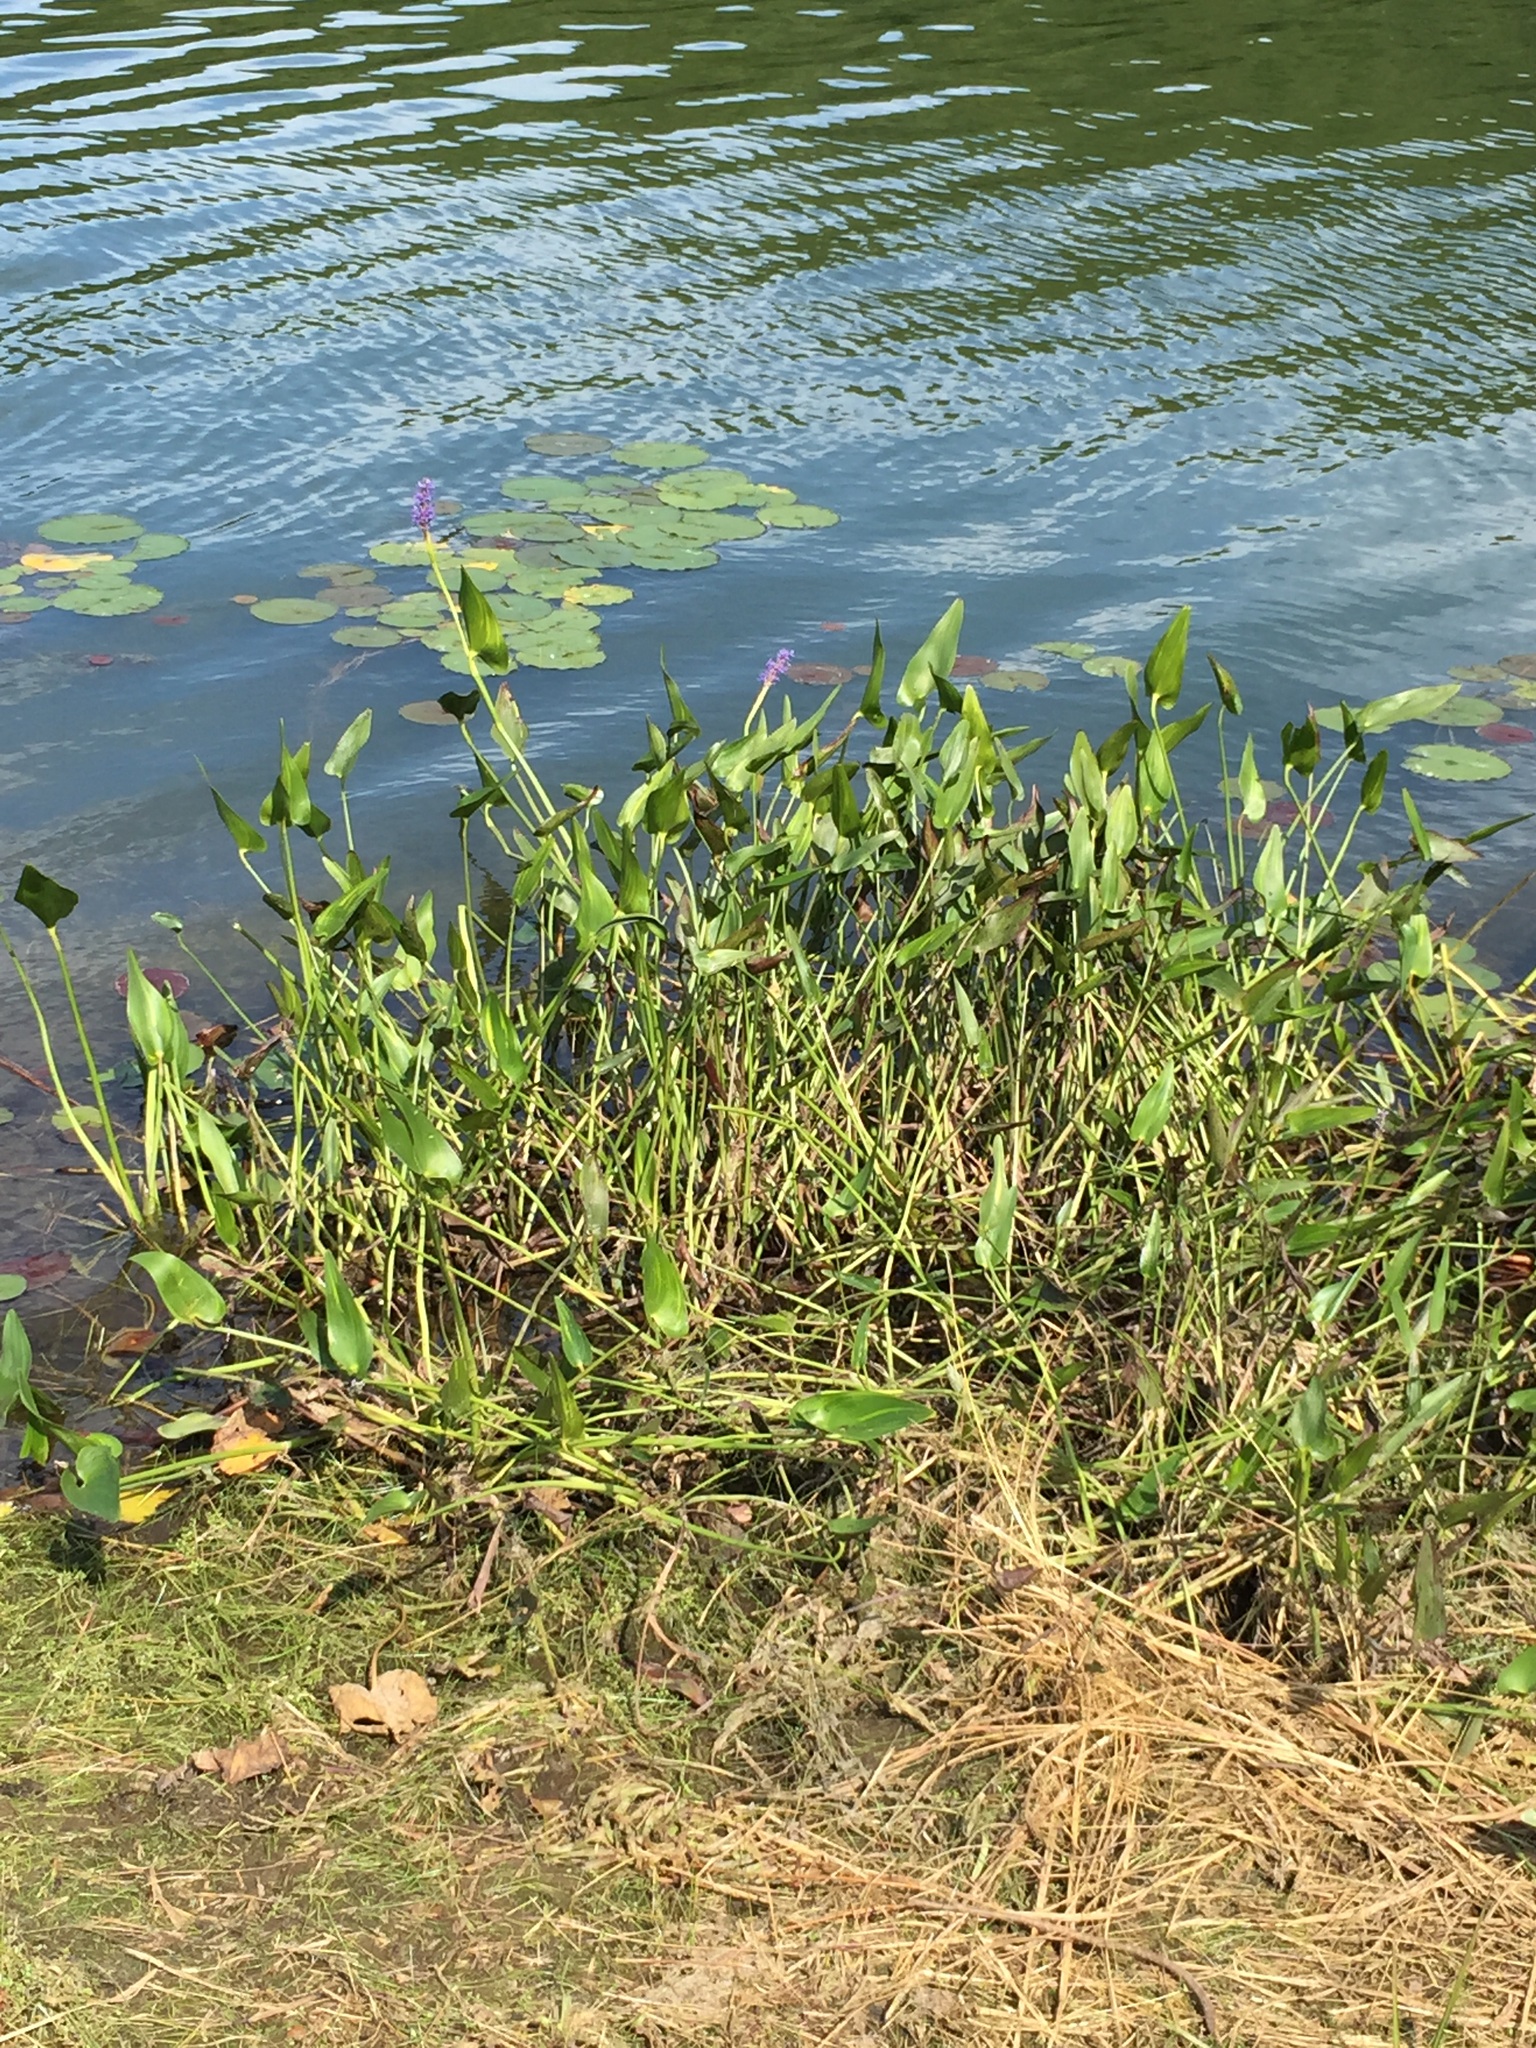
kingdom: Plantae
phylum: Tracheophyta
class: Liliopsida
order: Commelinales
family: Pontederiaceae
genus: Pontederia
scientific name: Pontederia cordata
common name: Pickerelweed
